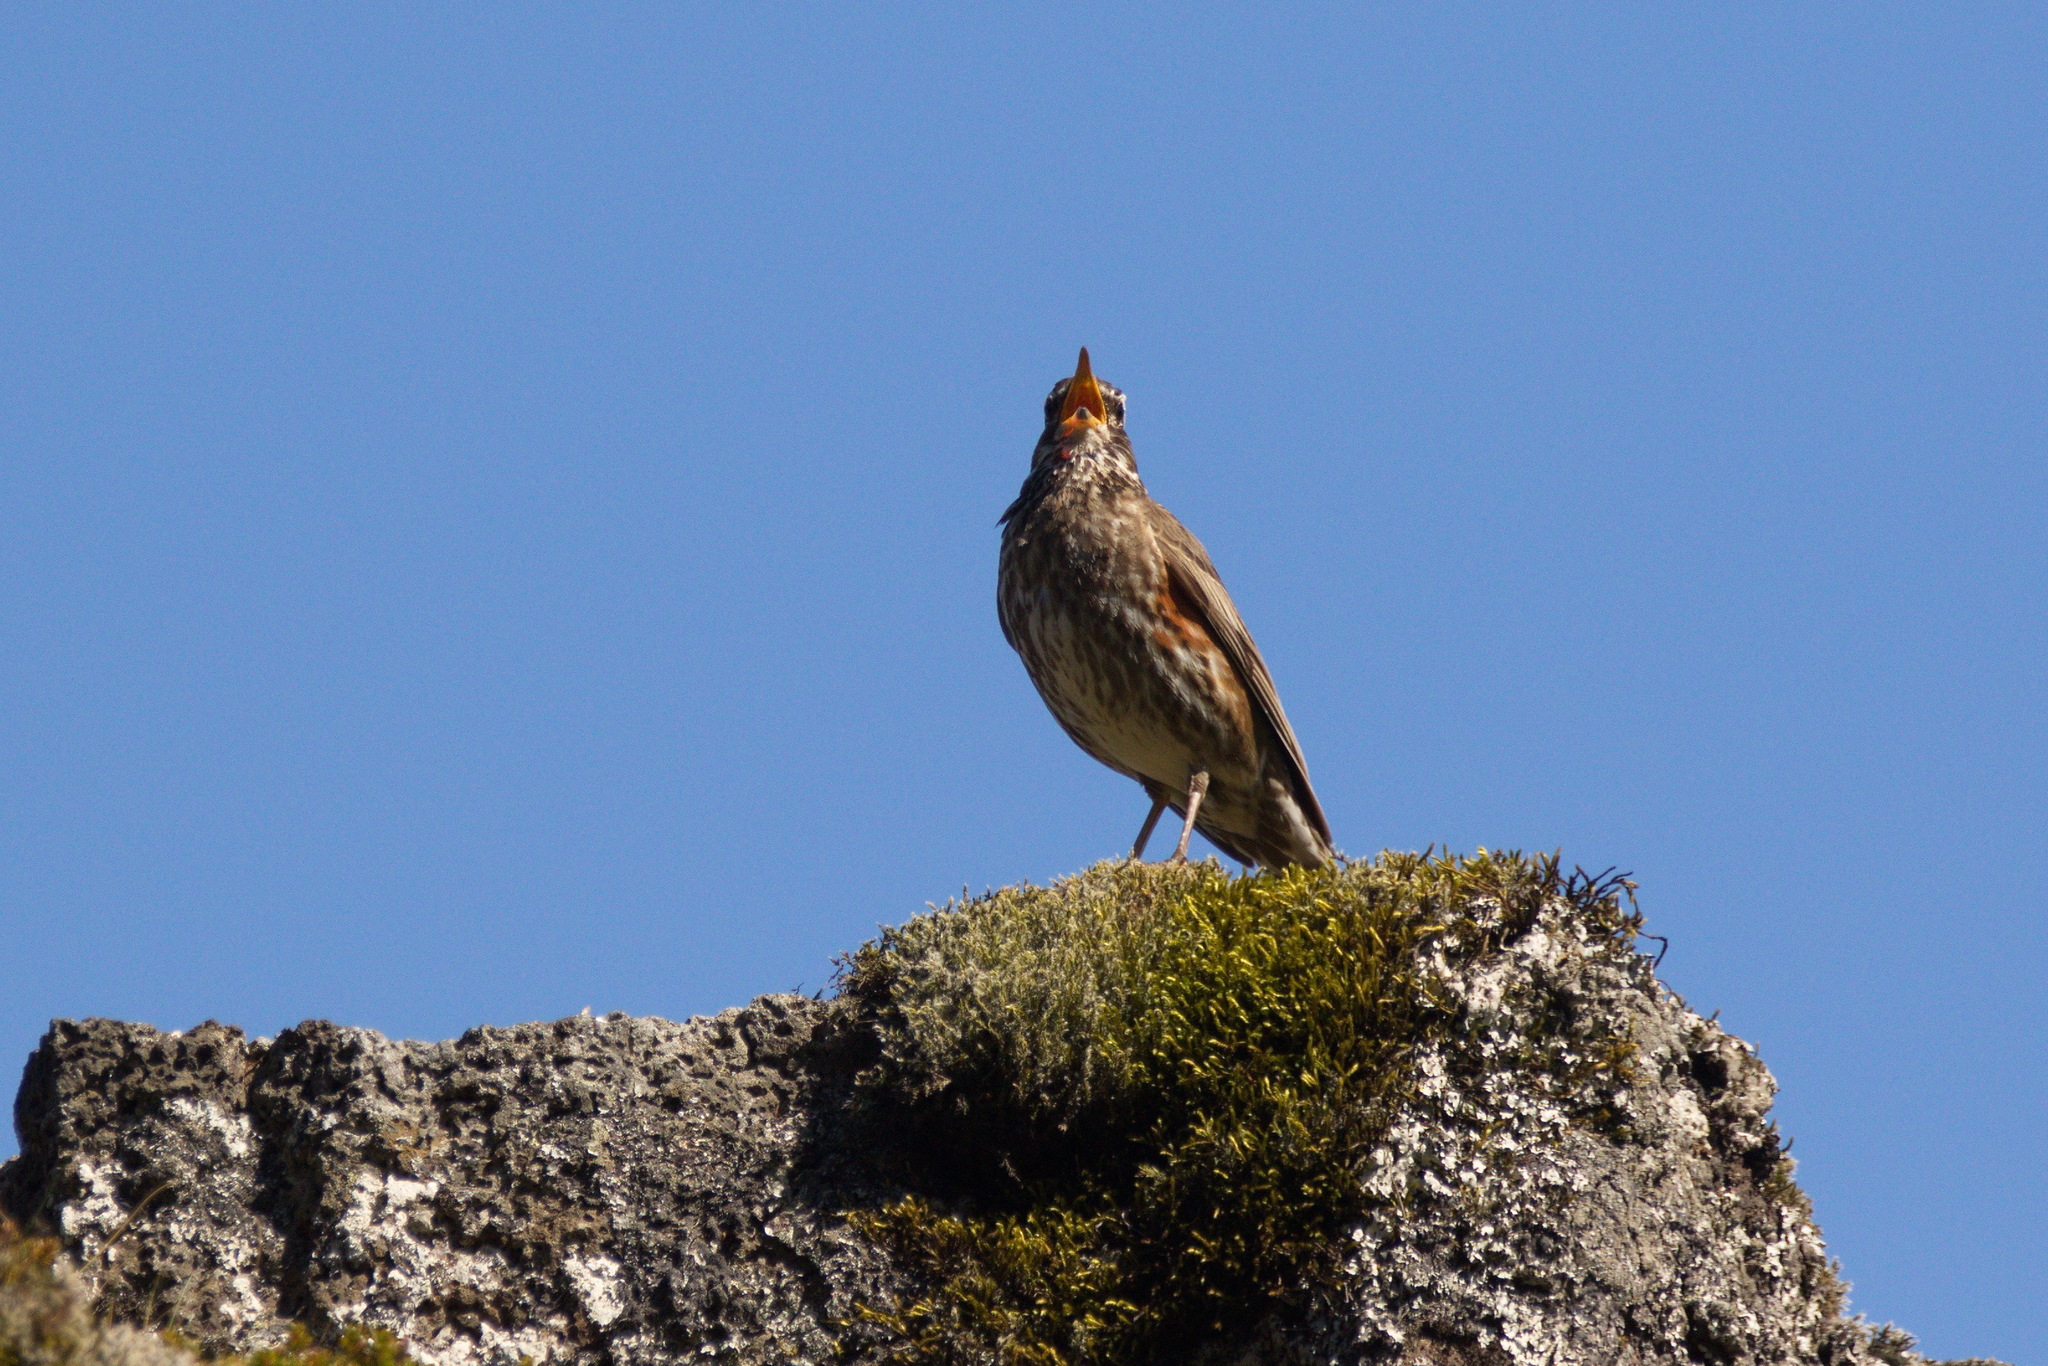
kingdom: Animalia
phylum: Chordata
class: Aves
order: Passeriformes
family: Turdidae
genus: Turdus
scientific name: Turdus iliacus
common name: Redwing
